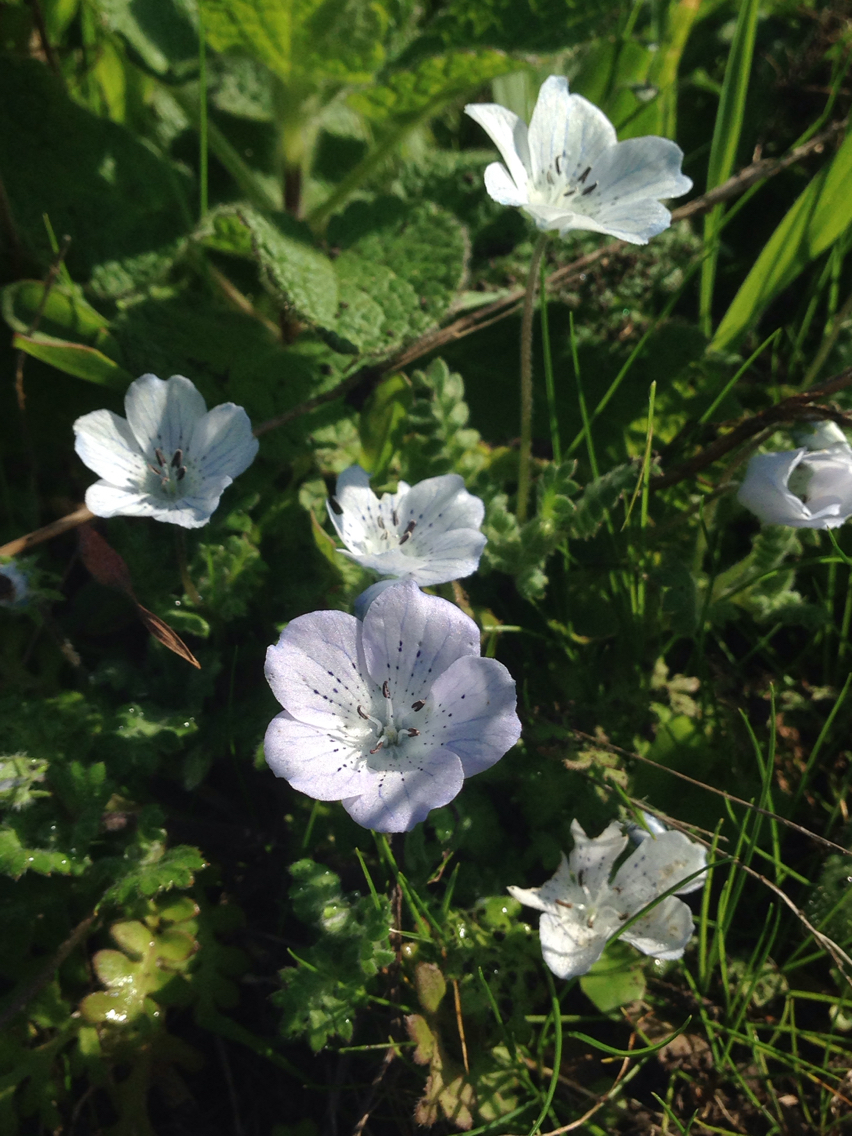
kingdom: Plantae
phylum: Tracheophyta
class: Magnoliopsida
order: Boraginales
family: Hydrophyllaceae
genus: Nemophila
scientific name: Nemophila menziesii
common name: Baby's-blue-eyes
